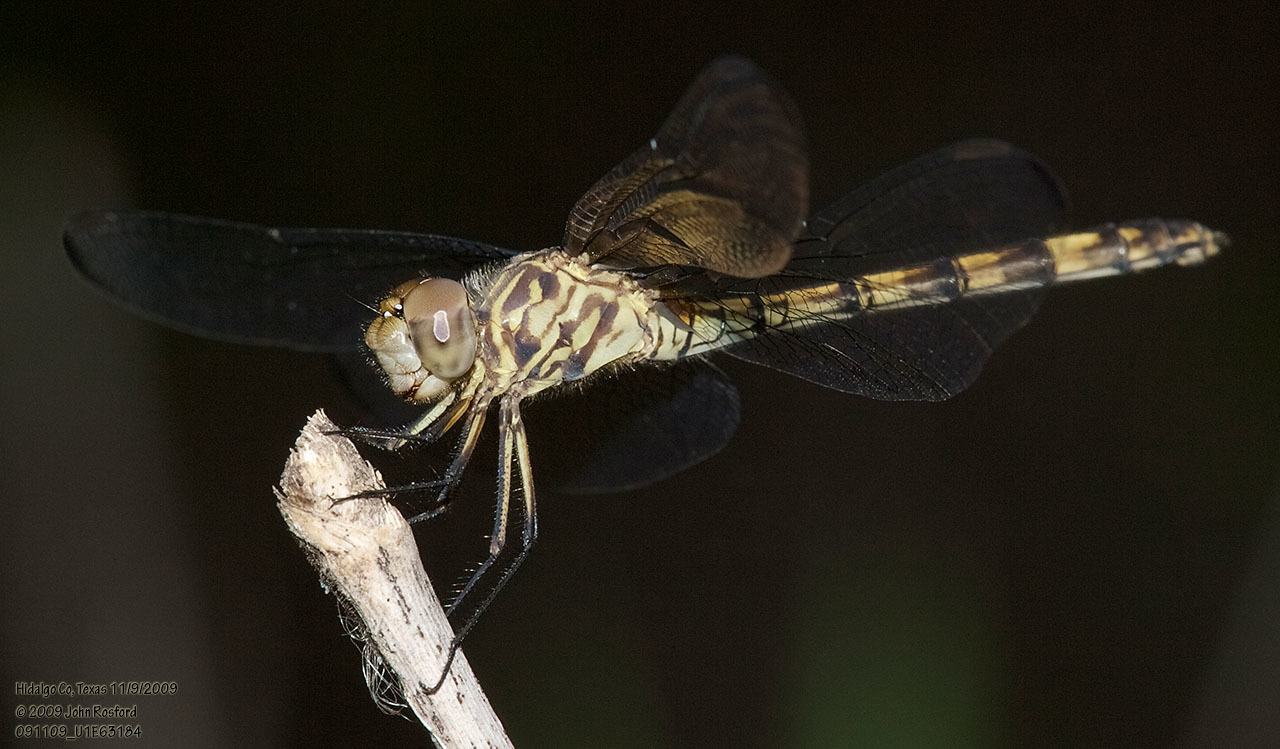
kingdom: Animalia
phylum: Arthropoda
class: Insecta
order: Odonata
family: Libellulidae
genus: Dythemis
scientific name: Dythemis nigrescens
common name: Black setwing
